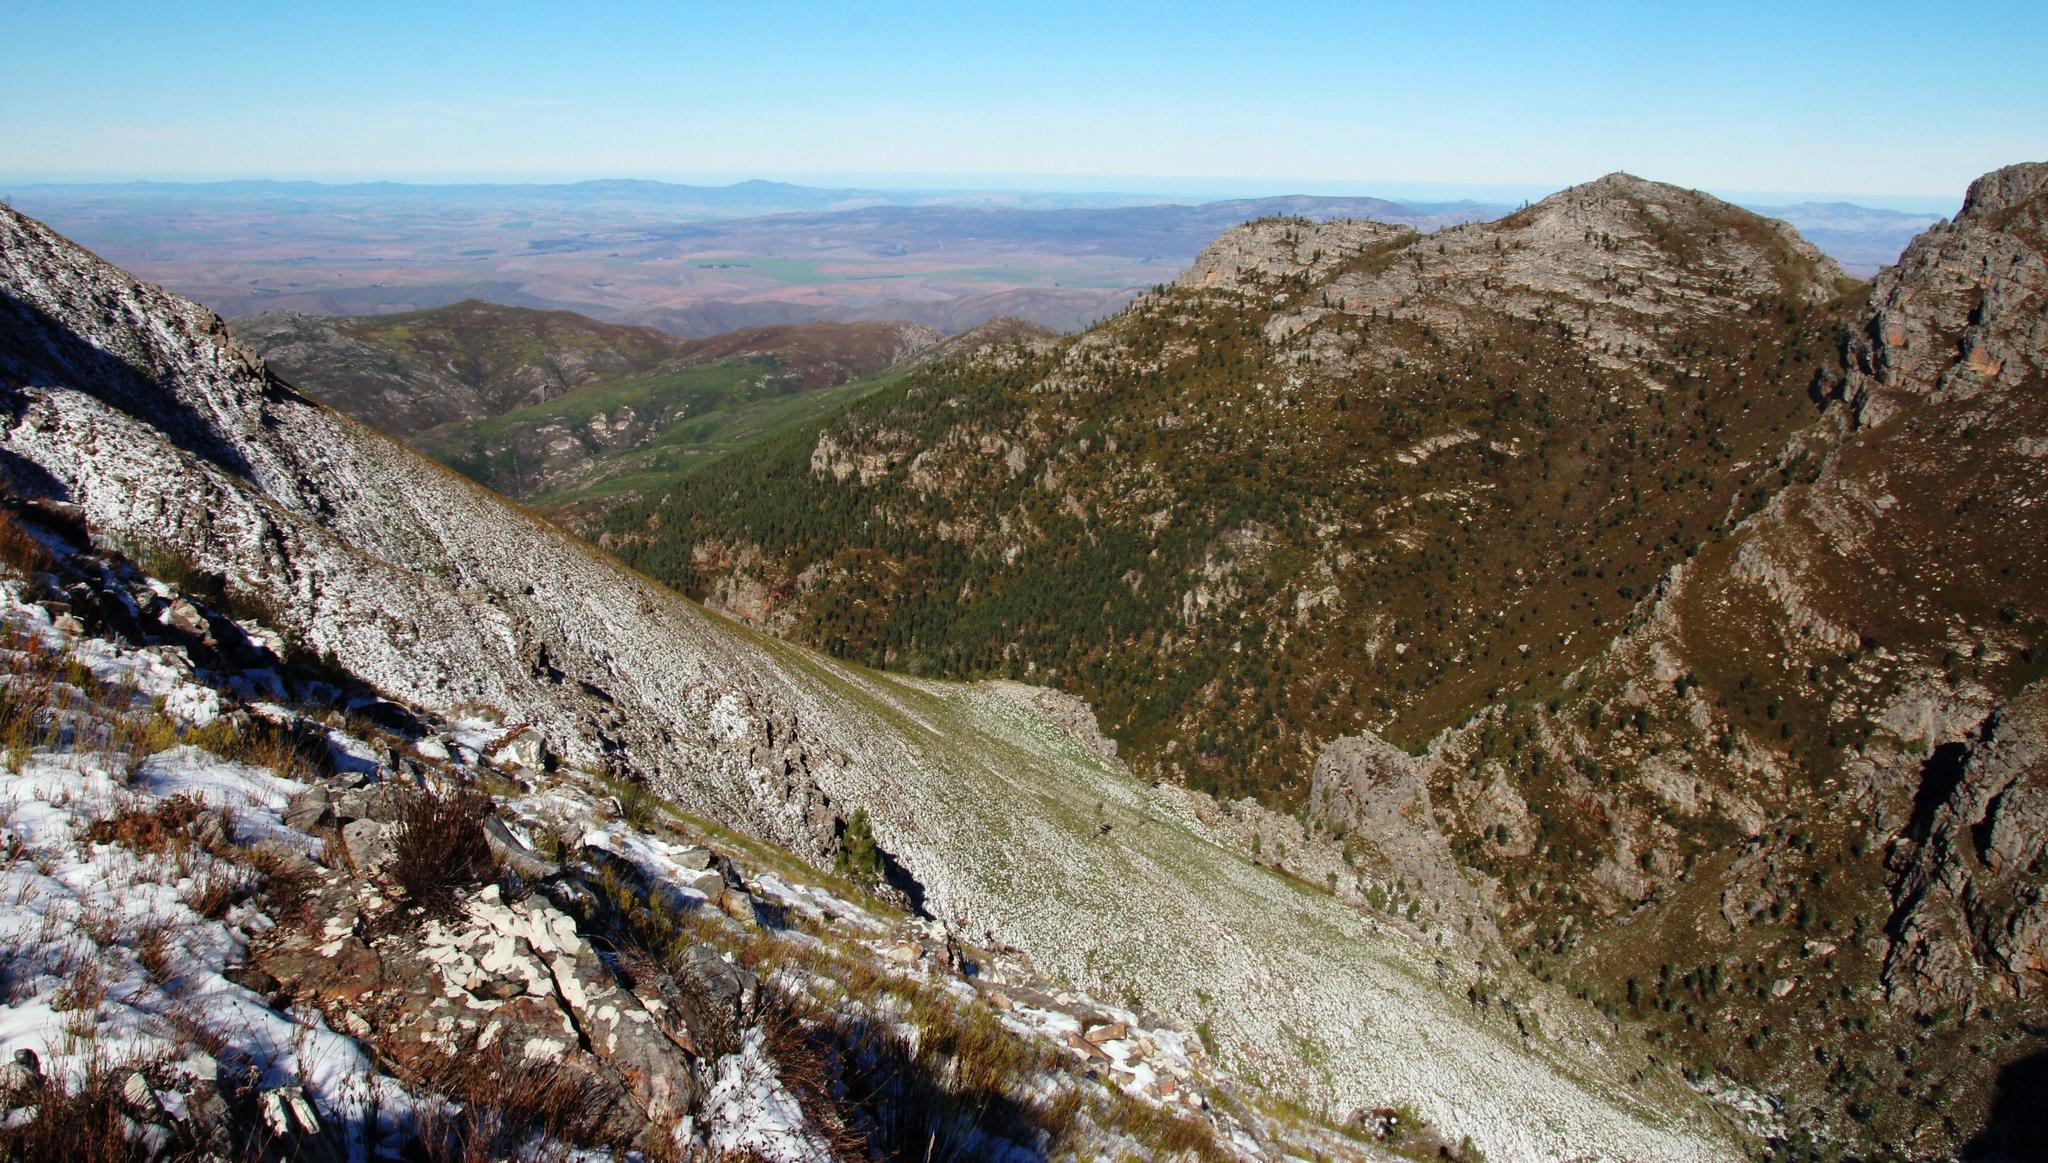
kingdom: Plantae
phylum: Tracheophyta
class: Pinopsida
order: Pinales
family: Pinaceae
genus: Pinus
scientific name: Pinus pinaster
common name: Maritime pine
